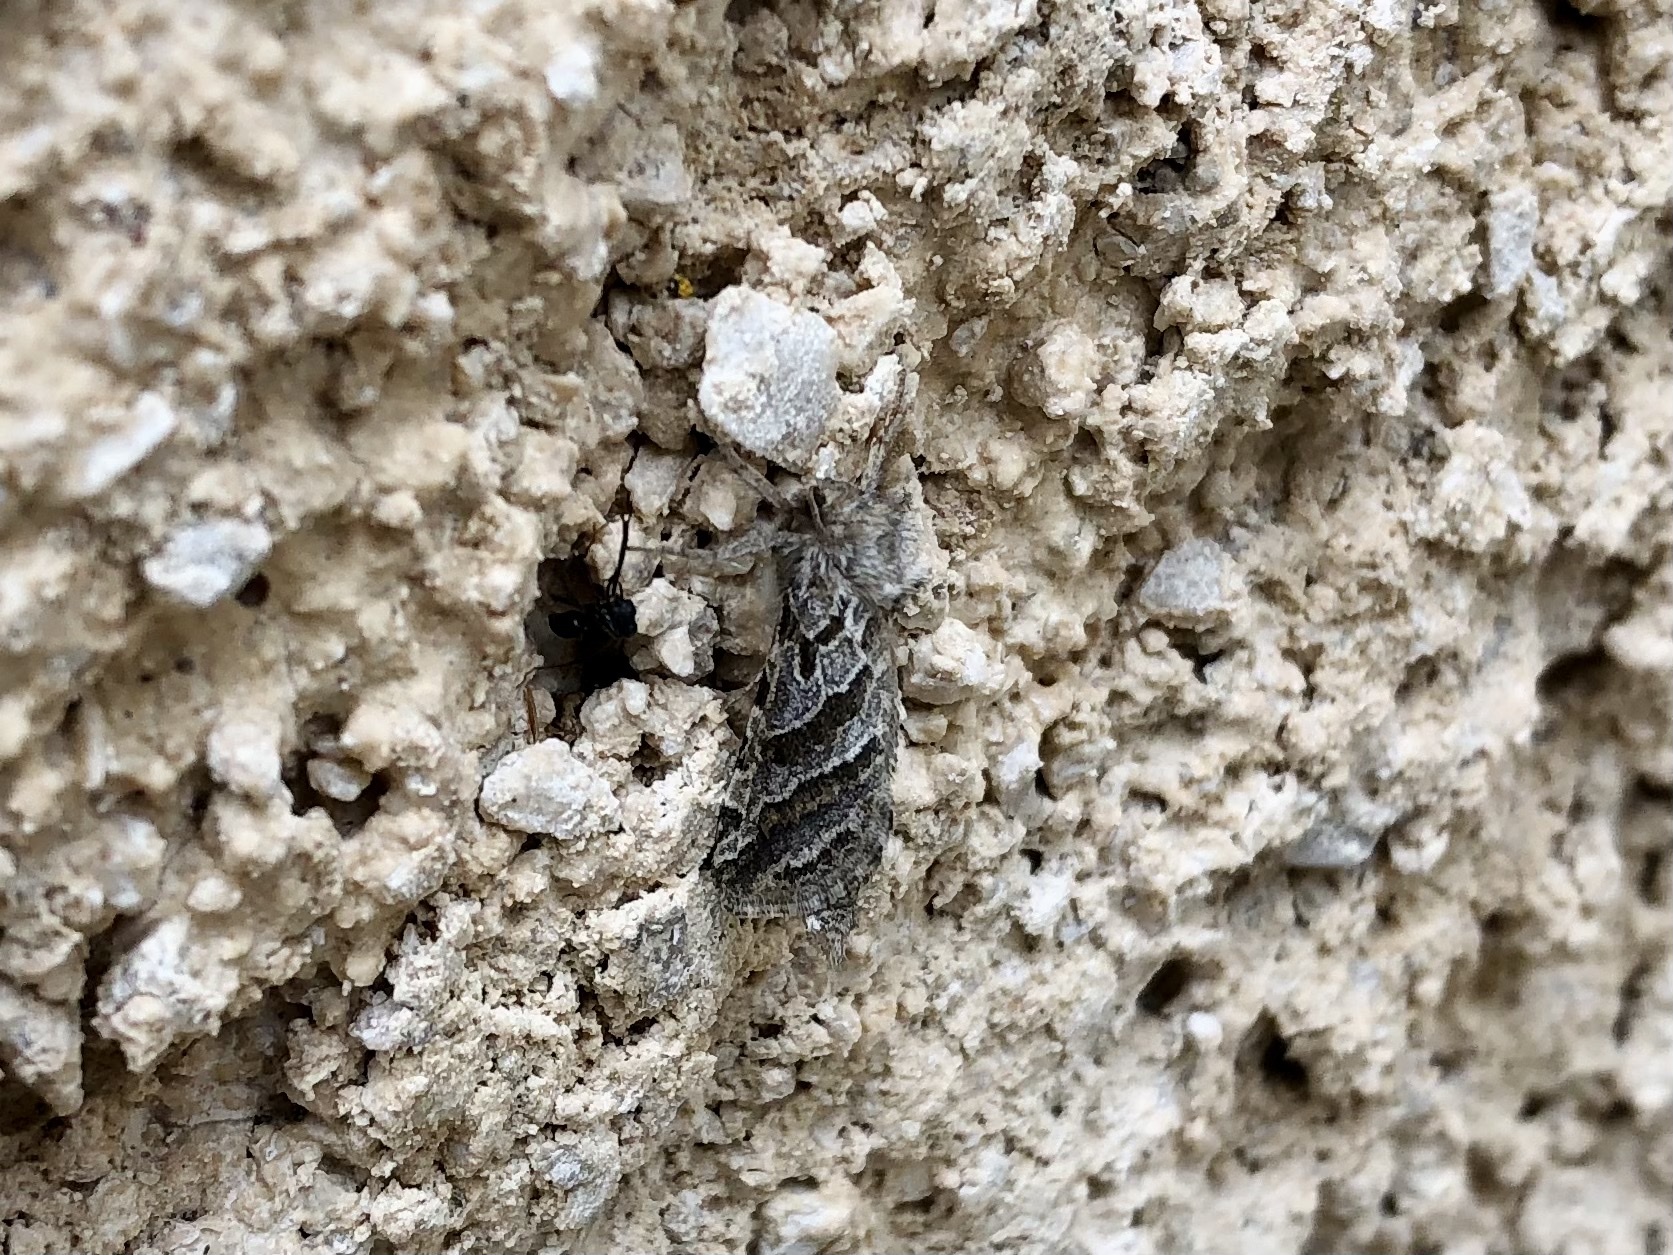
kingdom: Animalia
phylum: Arthropoda
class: Insecta
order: Lepidoptera
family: Hepialidae
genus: Triodia
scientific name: Triodia adriaticus
